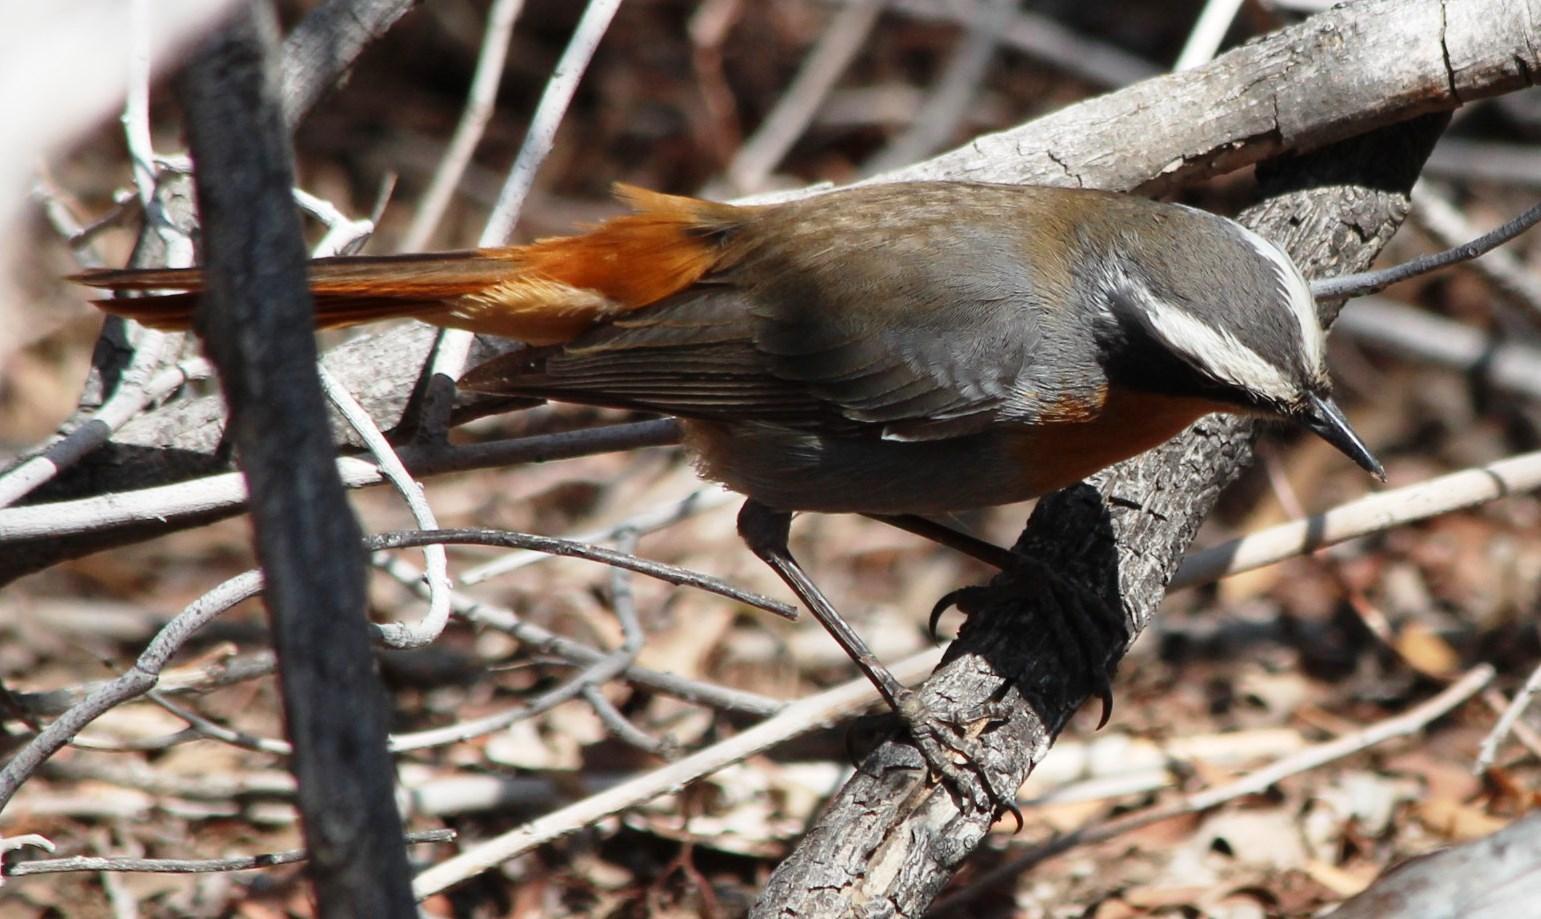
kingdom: Animalia
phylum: Chordata
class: Aves
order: Passeriformes
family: Muscicapidae
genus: Cossypha
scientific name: Cossypha caffra
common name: Cape robin-chat
